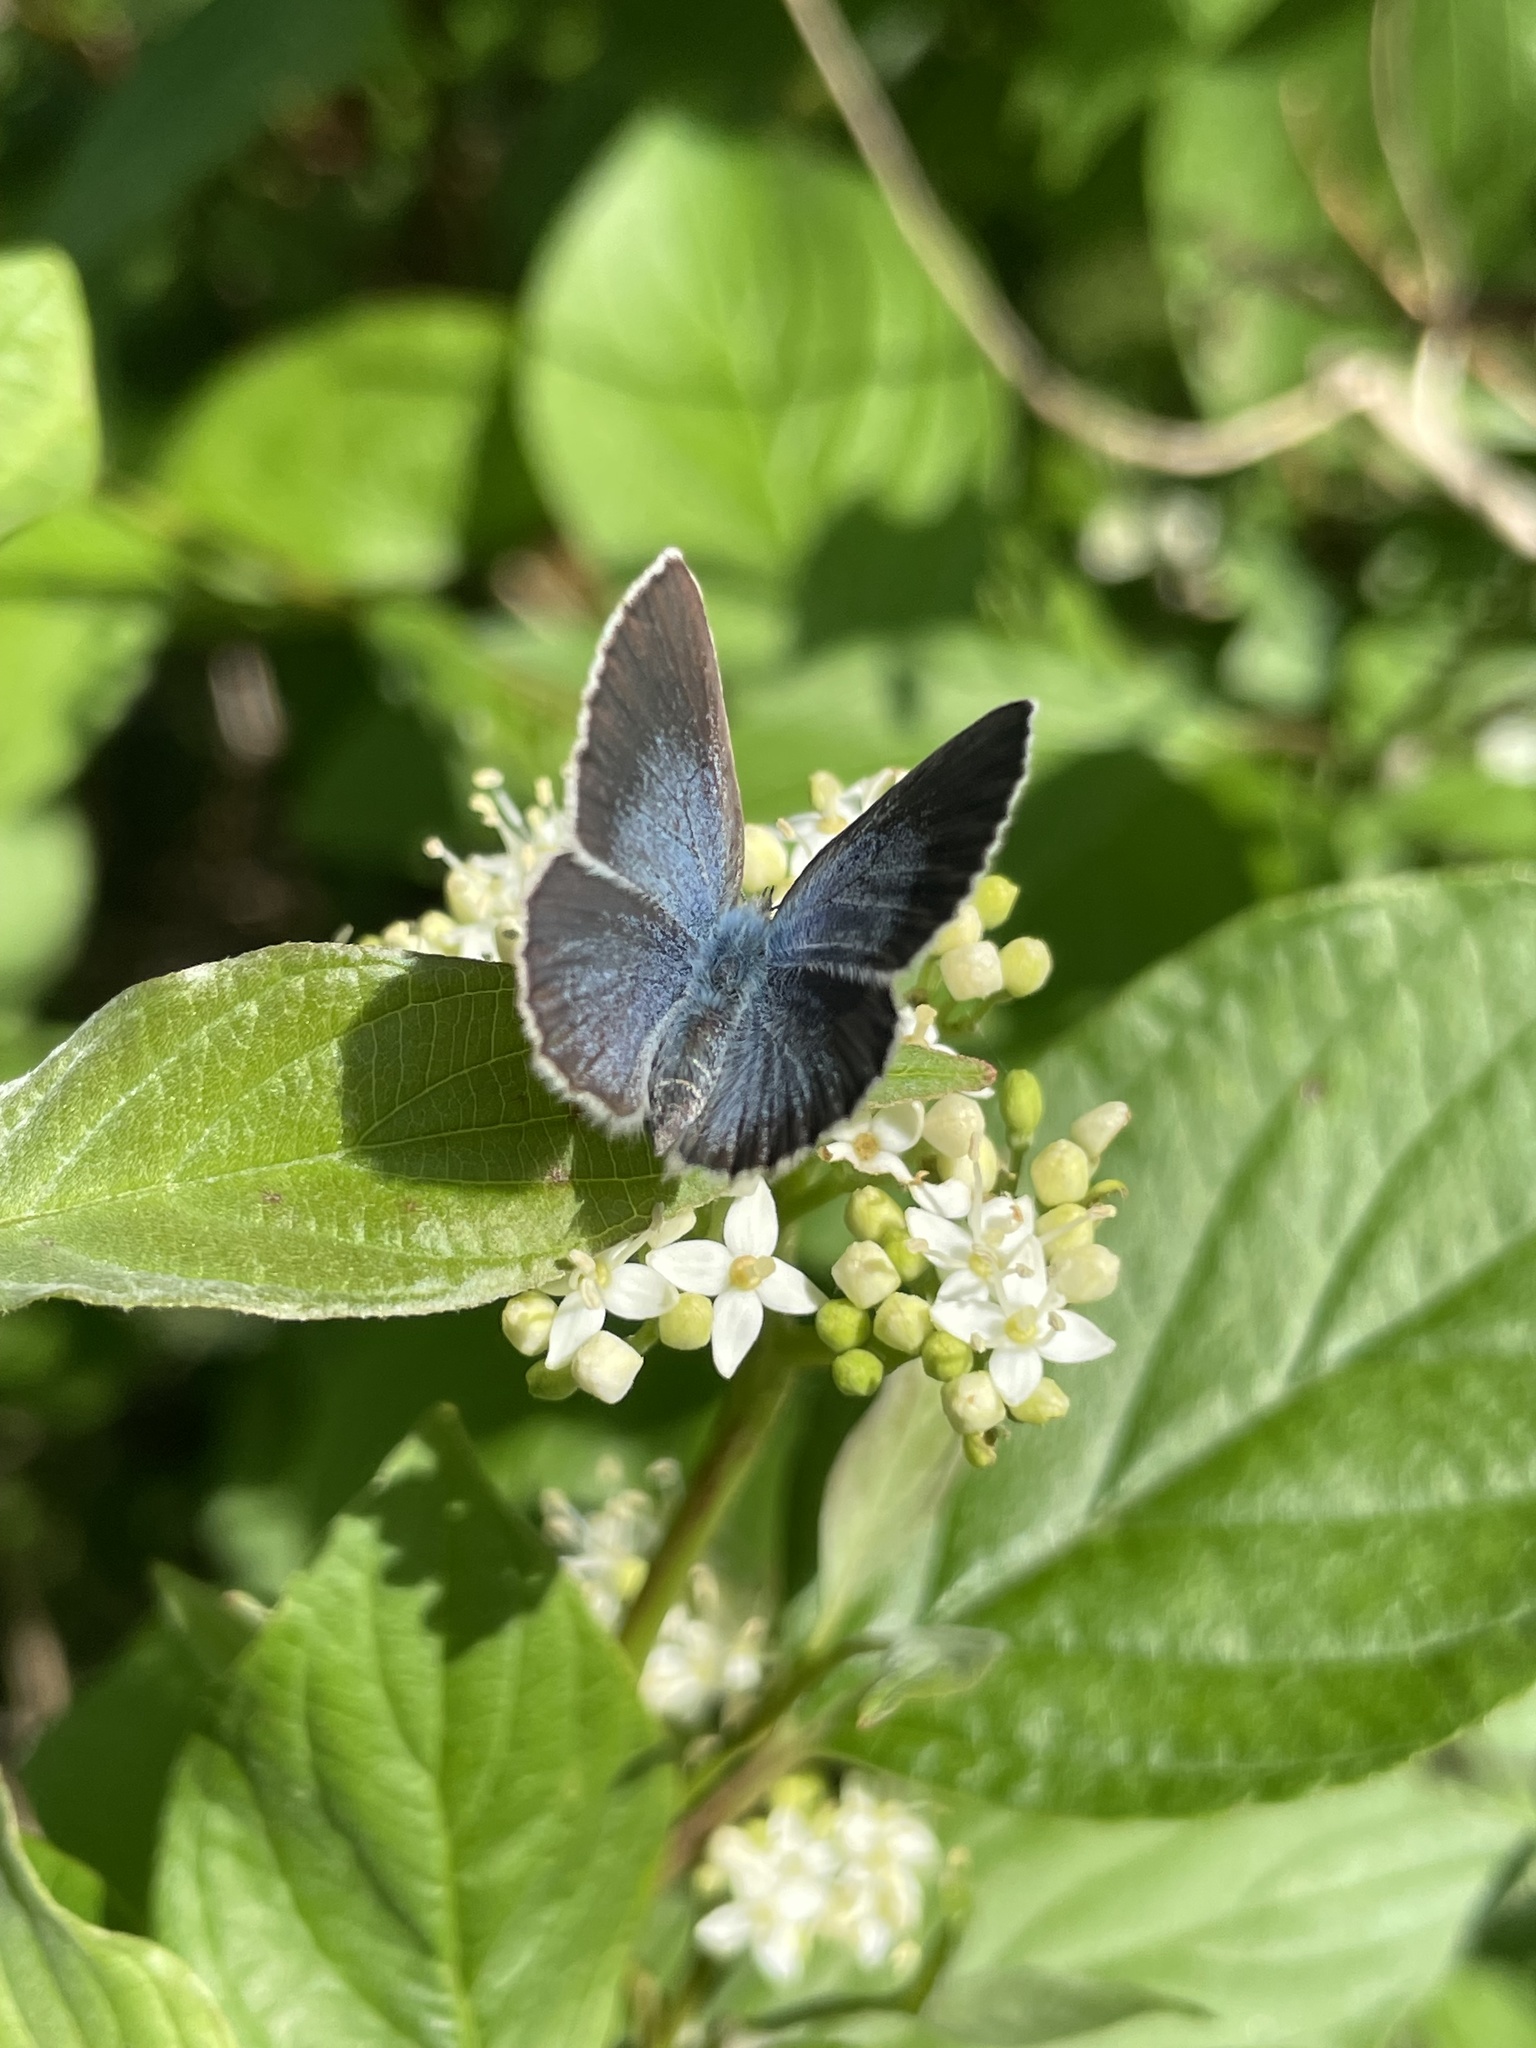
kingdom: Animalia
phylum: Arthropoda
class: Insecta
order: Lepidoptera
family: Lycaenidae
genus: Glaucopsyche
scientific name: Glaucopsyche lygdamus
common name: Silvery blue
